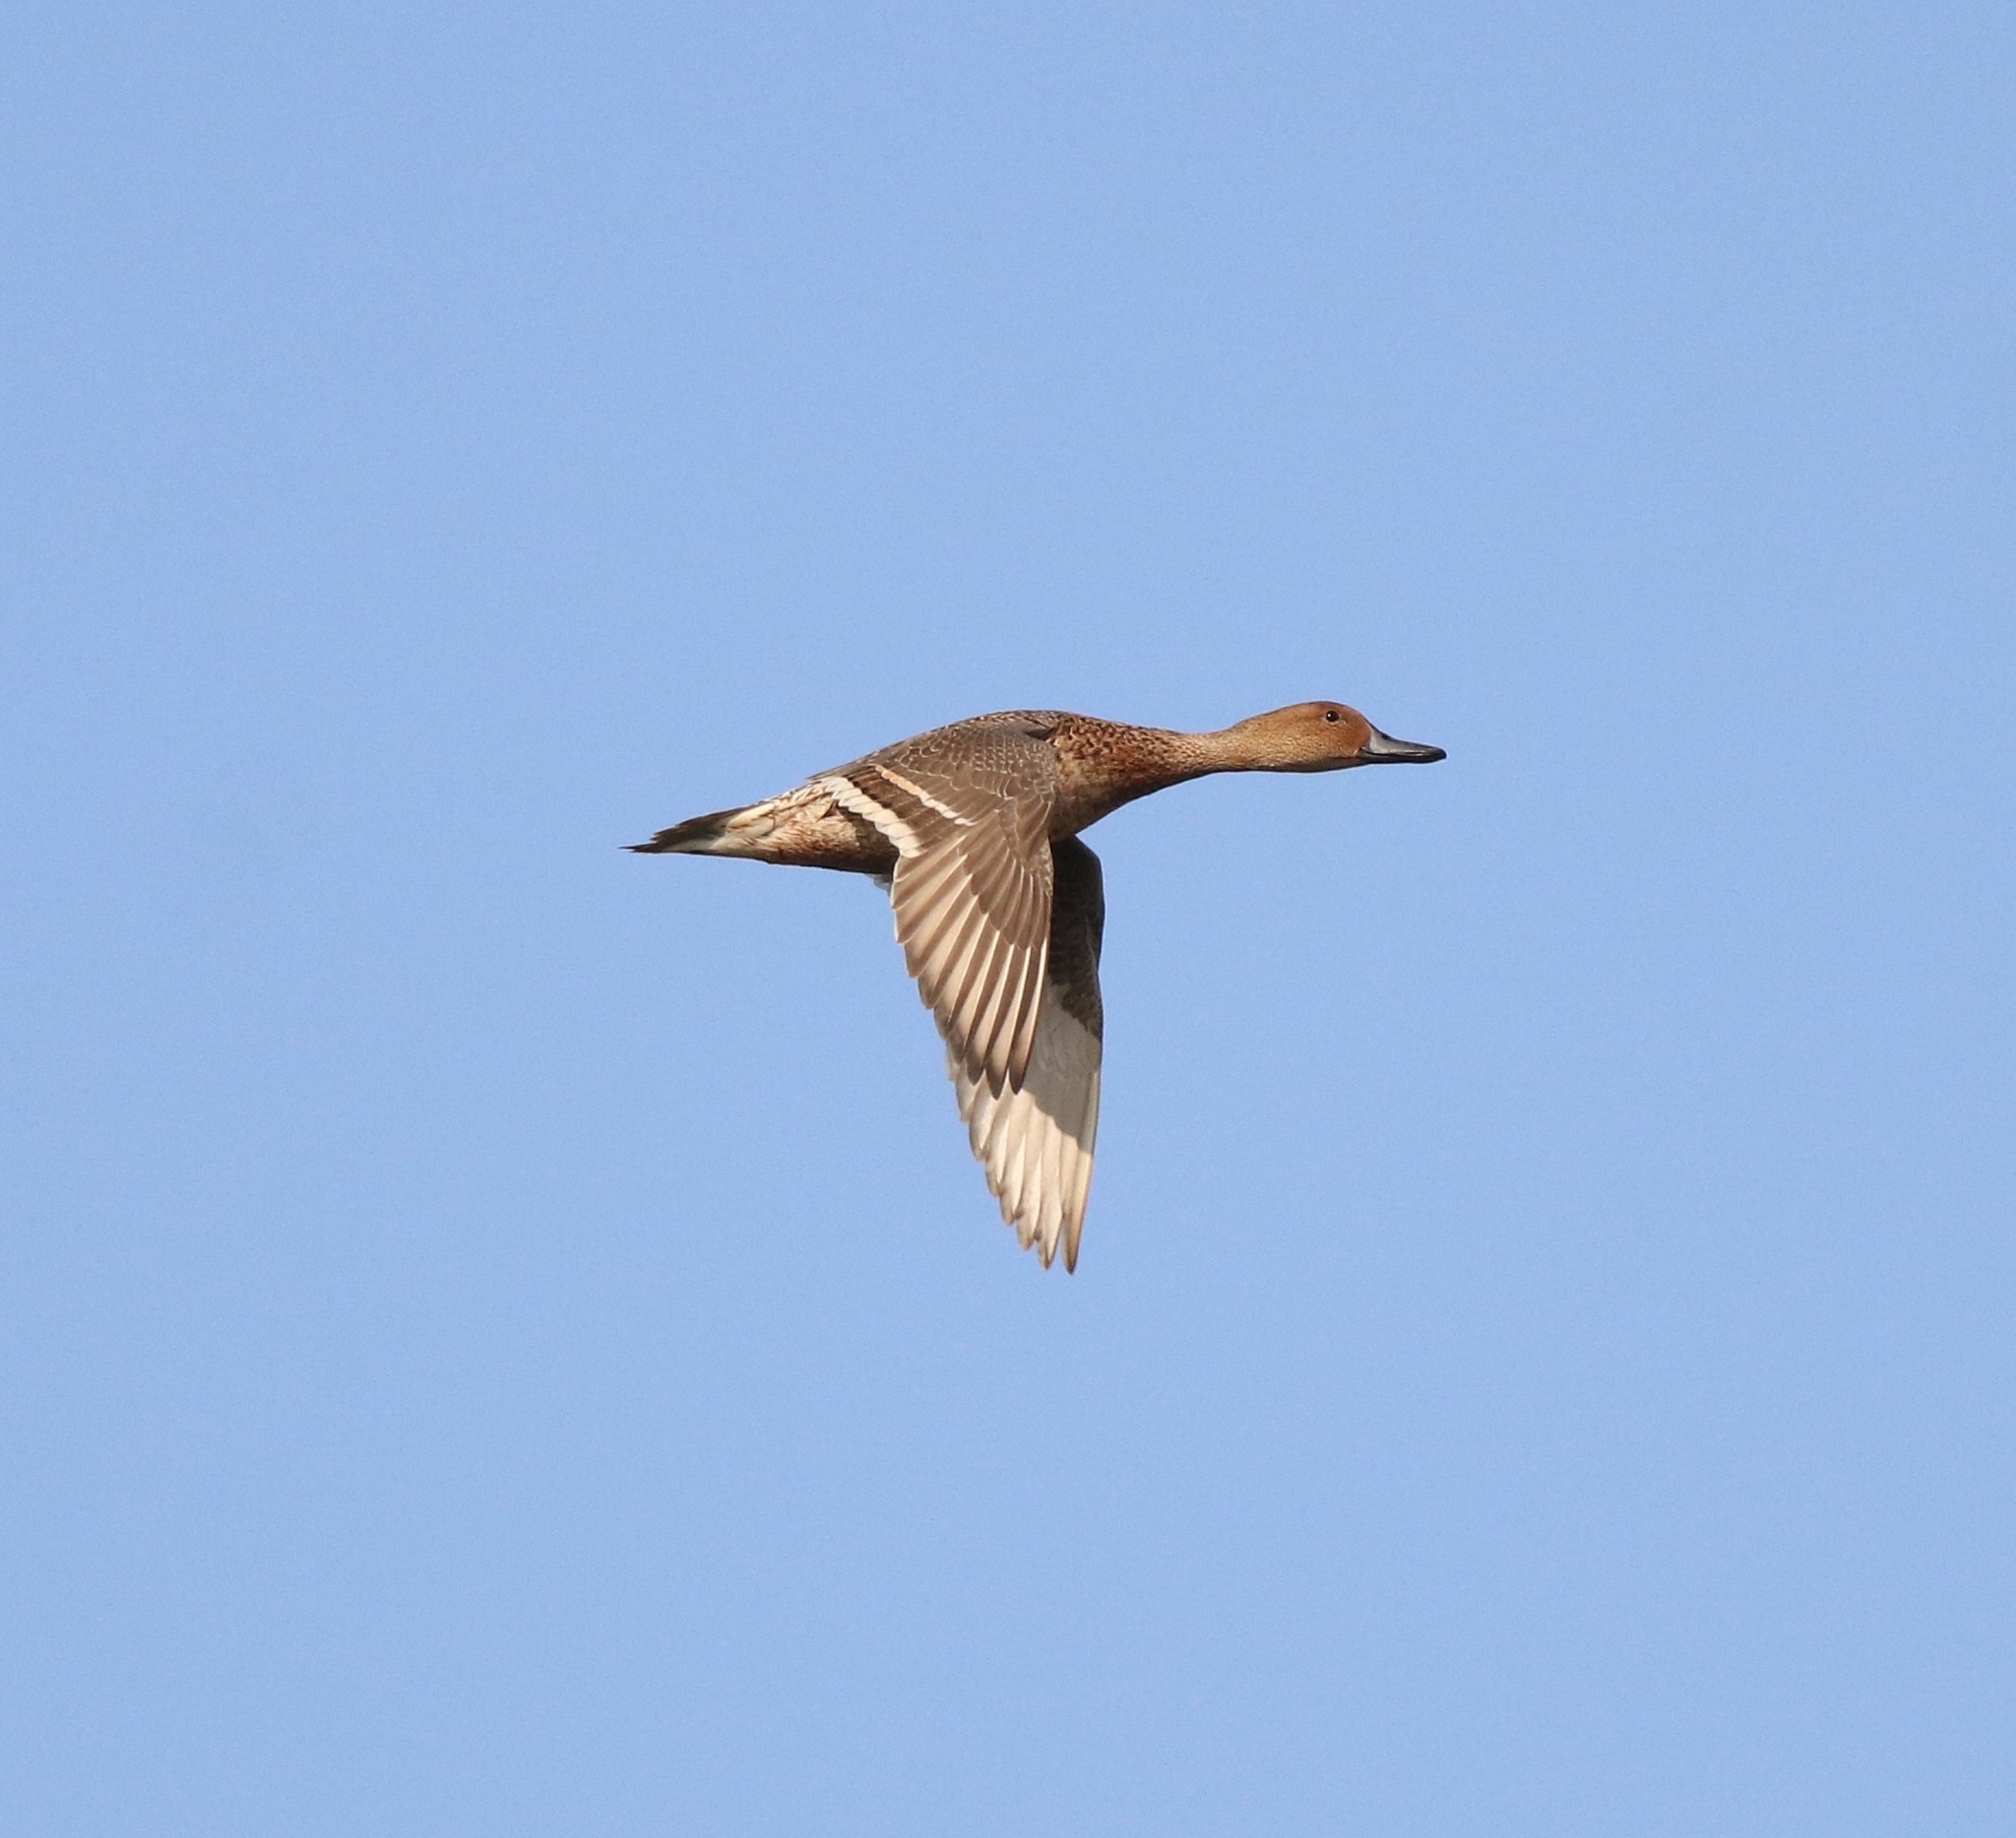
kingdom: Animalia
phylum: Chordata
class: Aves
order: Anseriformes
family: Anatidae
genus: Anas
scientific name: Anas acuta
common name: Northern pintail
